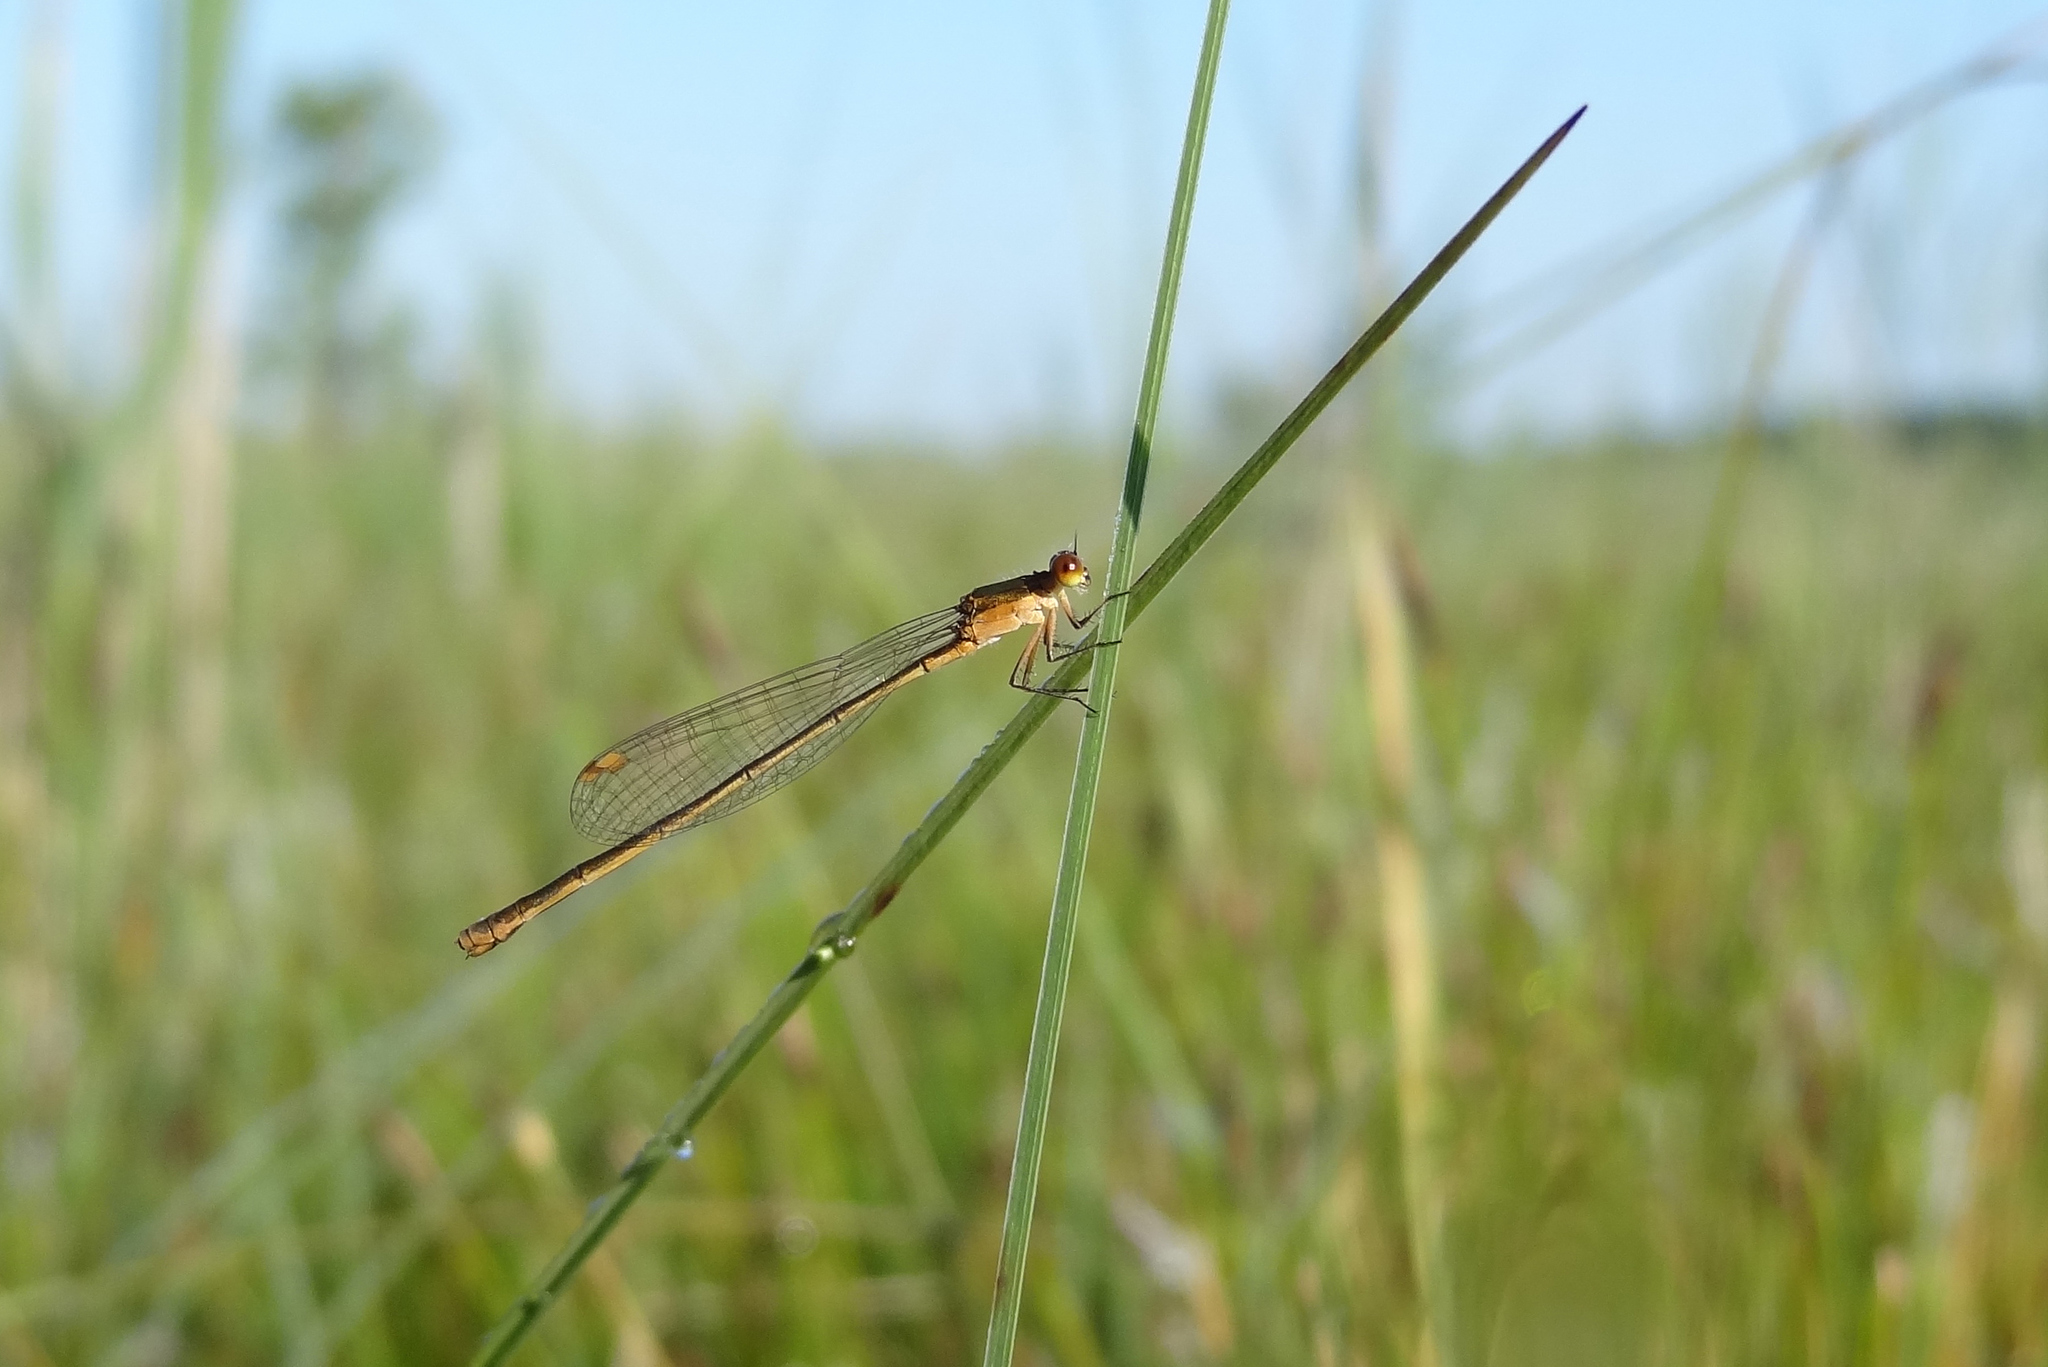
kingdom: Animalia
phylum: Arthropoda
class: Insecta
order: Odonata
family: Coenagrionidae
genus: Nehalennia
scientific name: Nehalennia speciosa
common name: Sedgling
